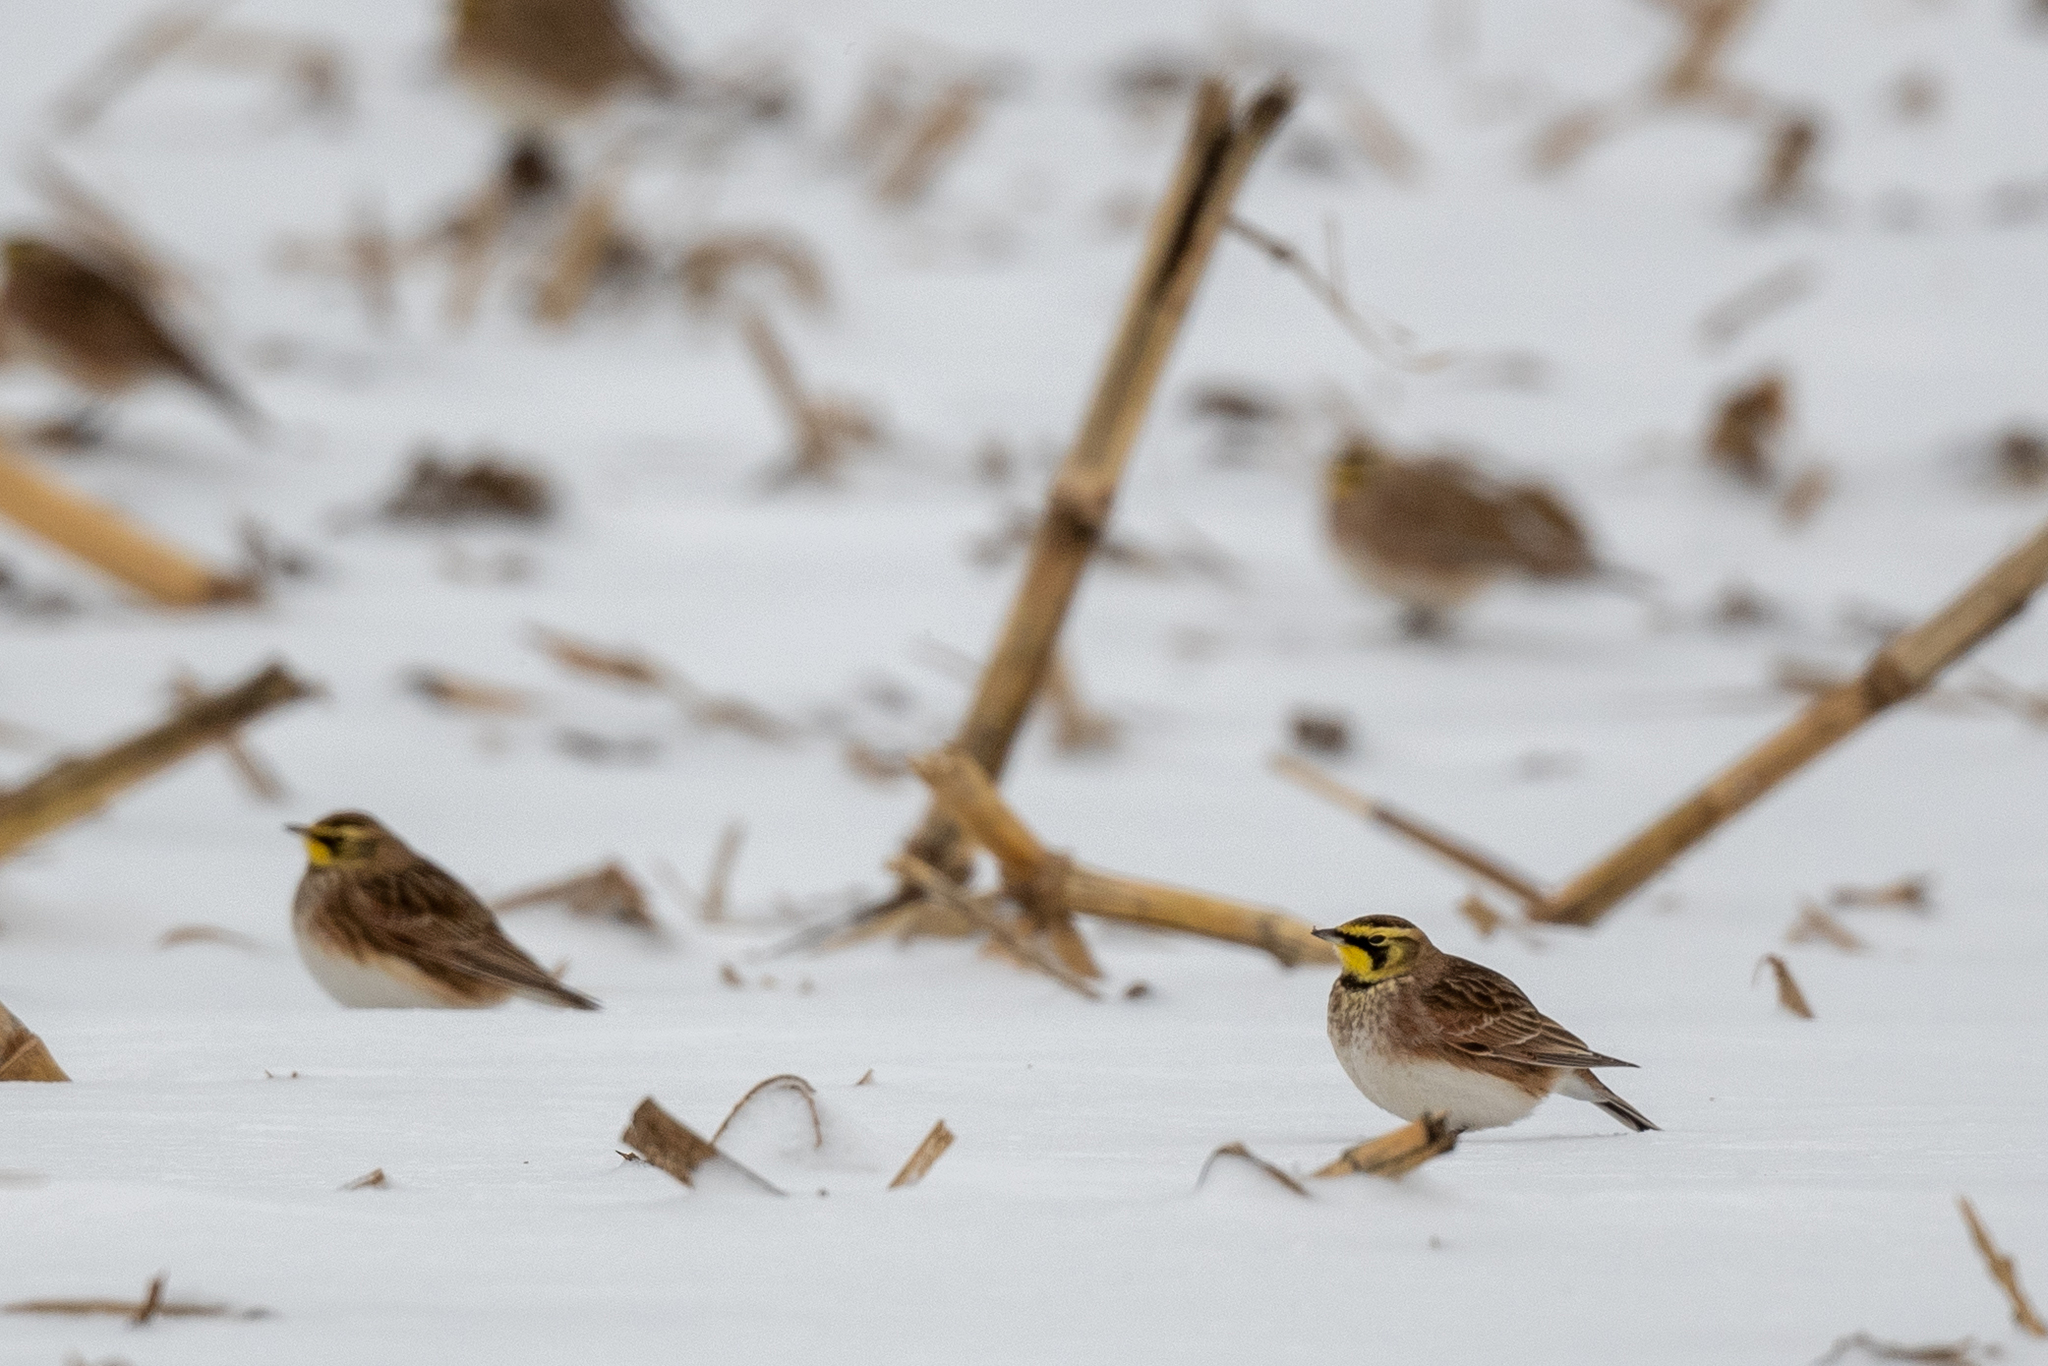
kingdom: Animalia
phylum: Chordata
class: Aves
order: Passeriformes
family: Alaudidae
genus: Eremophila
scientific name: Eremophila alpestris
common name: Horned lark
